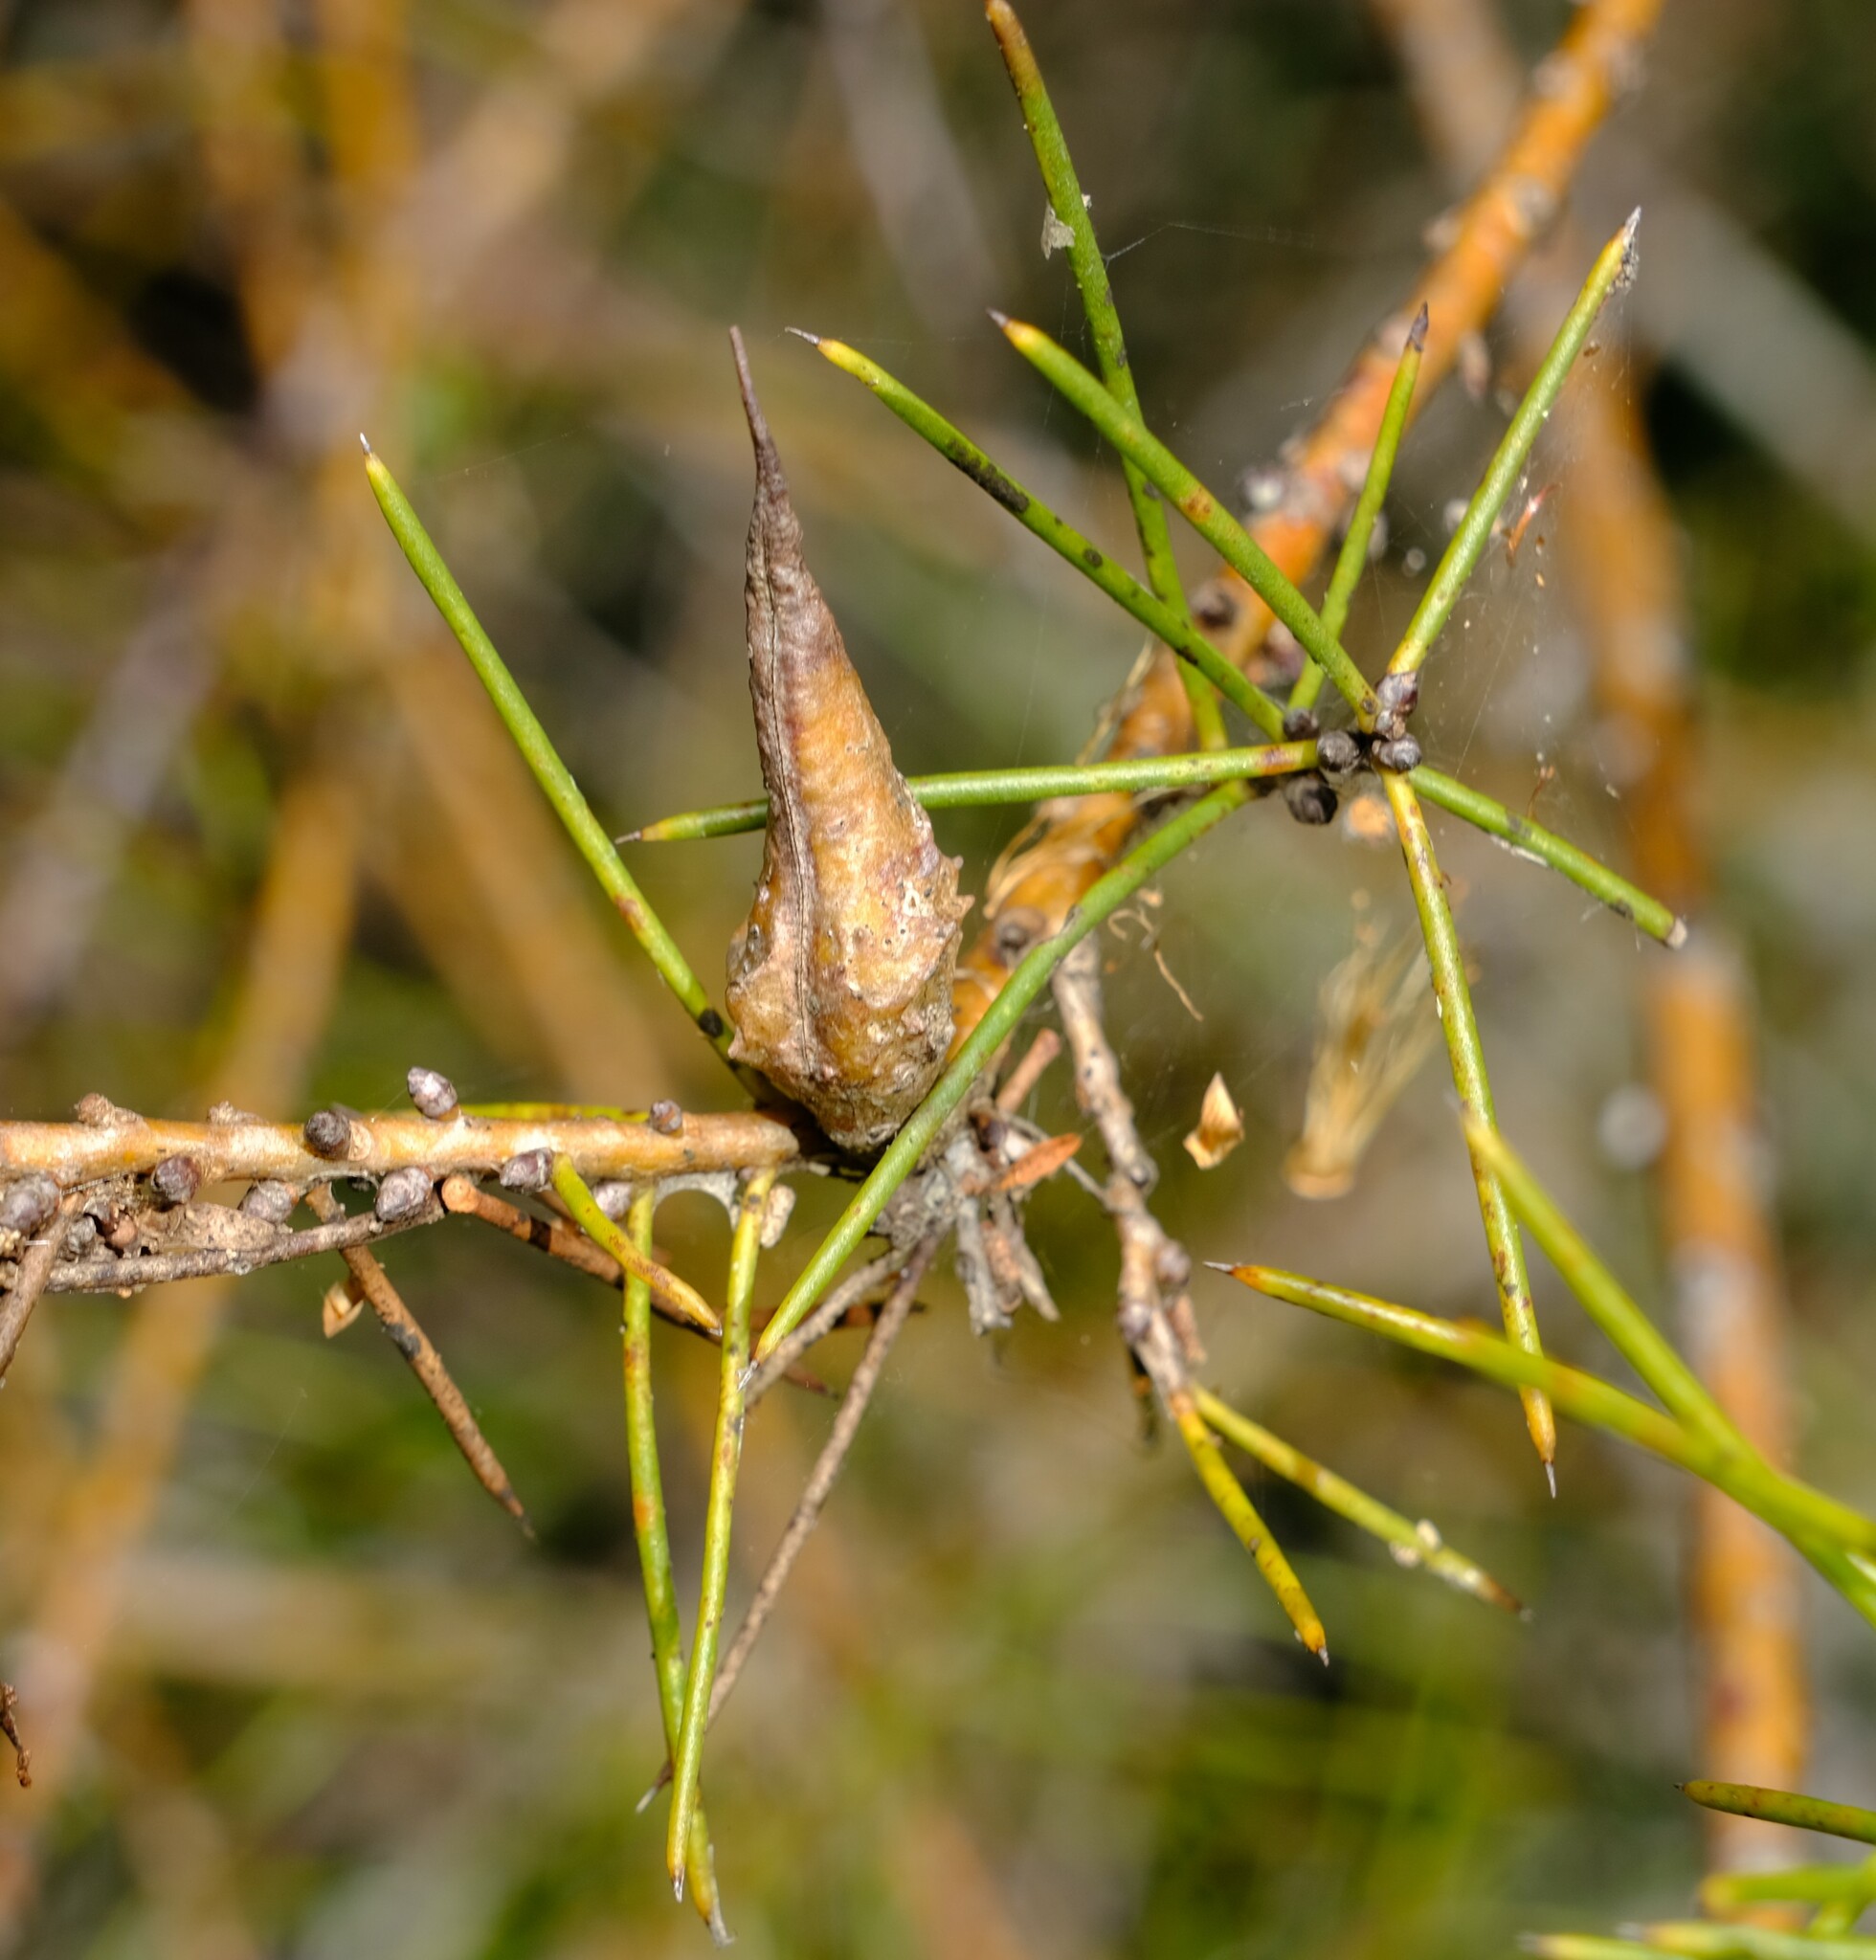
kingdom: Plantae
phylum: Tracheophyta
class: Magnoliopsida
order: Proteales
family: Proteaceae
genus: Hakea
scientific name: Hakea teretifolia
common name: Dagger hakea
